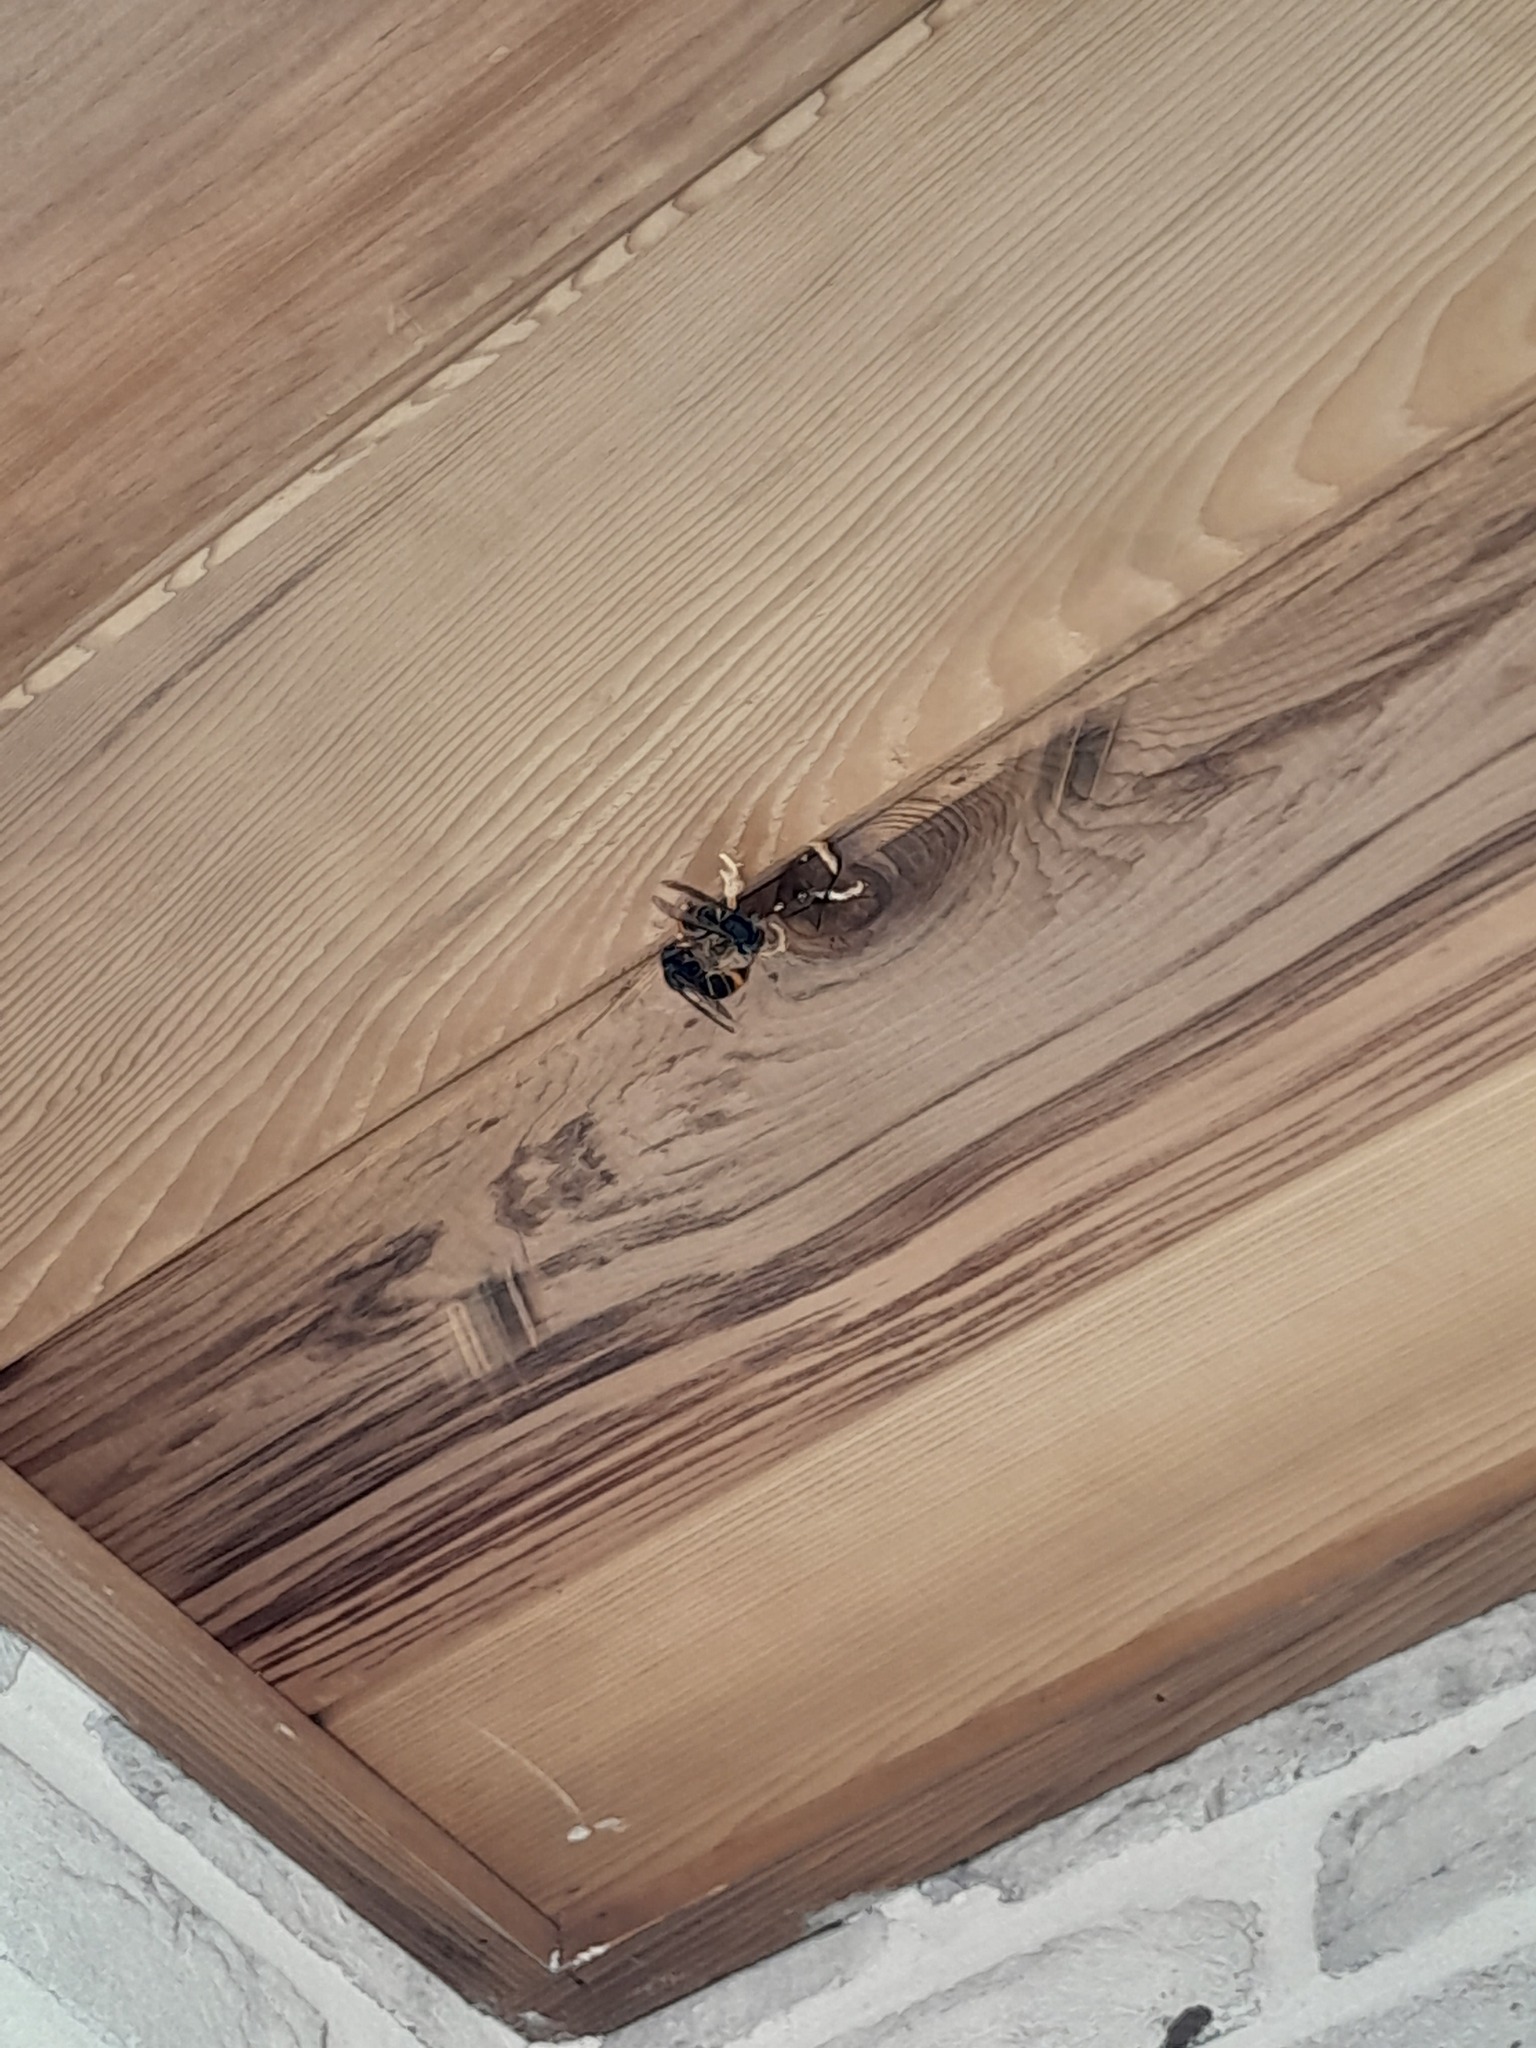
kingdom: Animalia
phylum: Arthropoda
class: Insecta
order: Hymenoptera
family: Vespidae
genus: Vespa
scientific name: Vespa velutina
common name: Asian hornet
